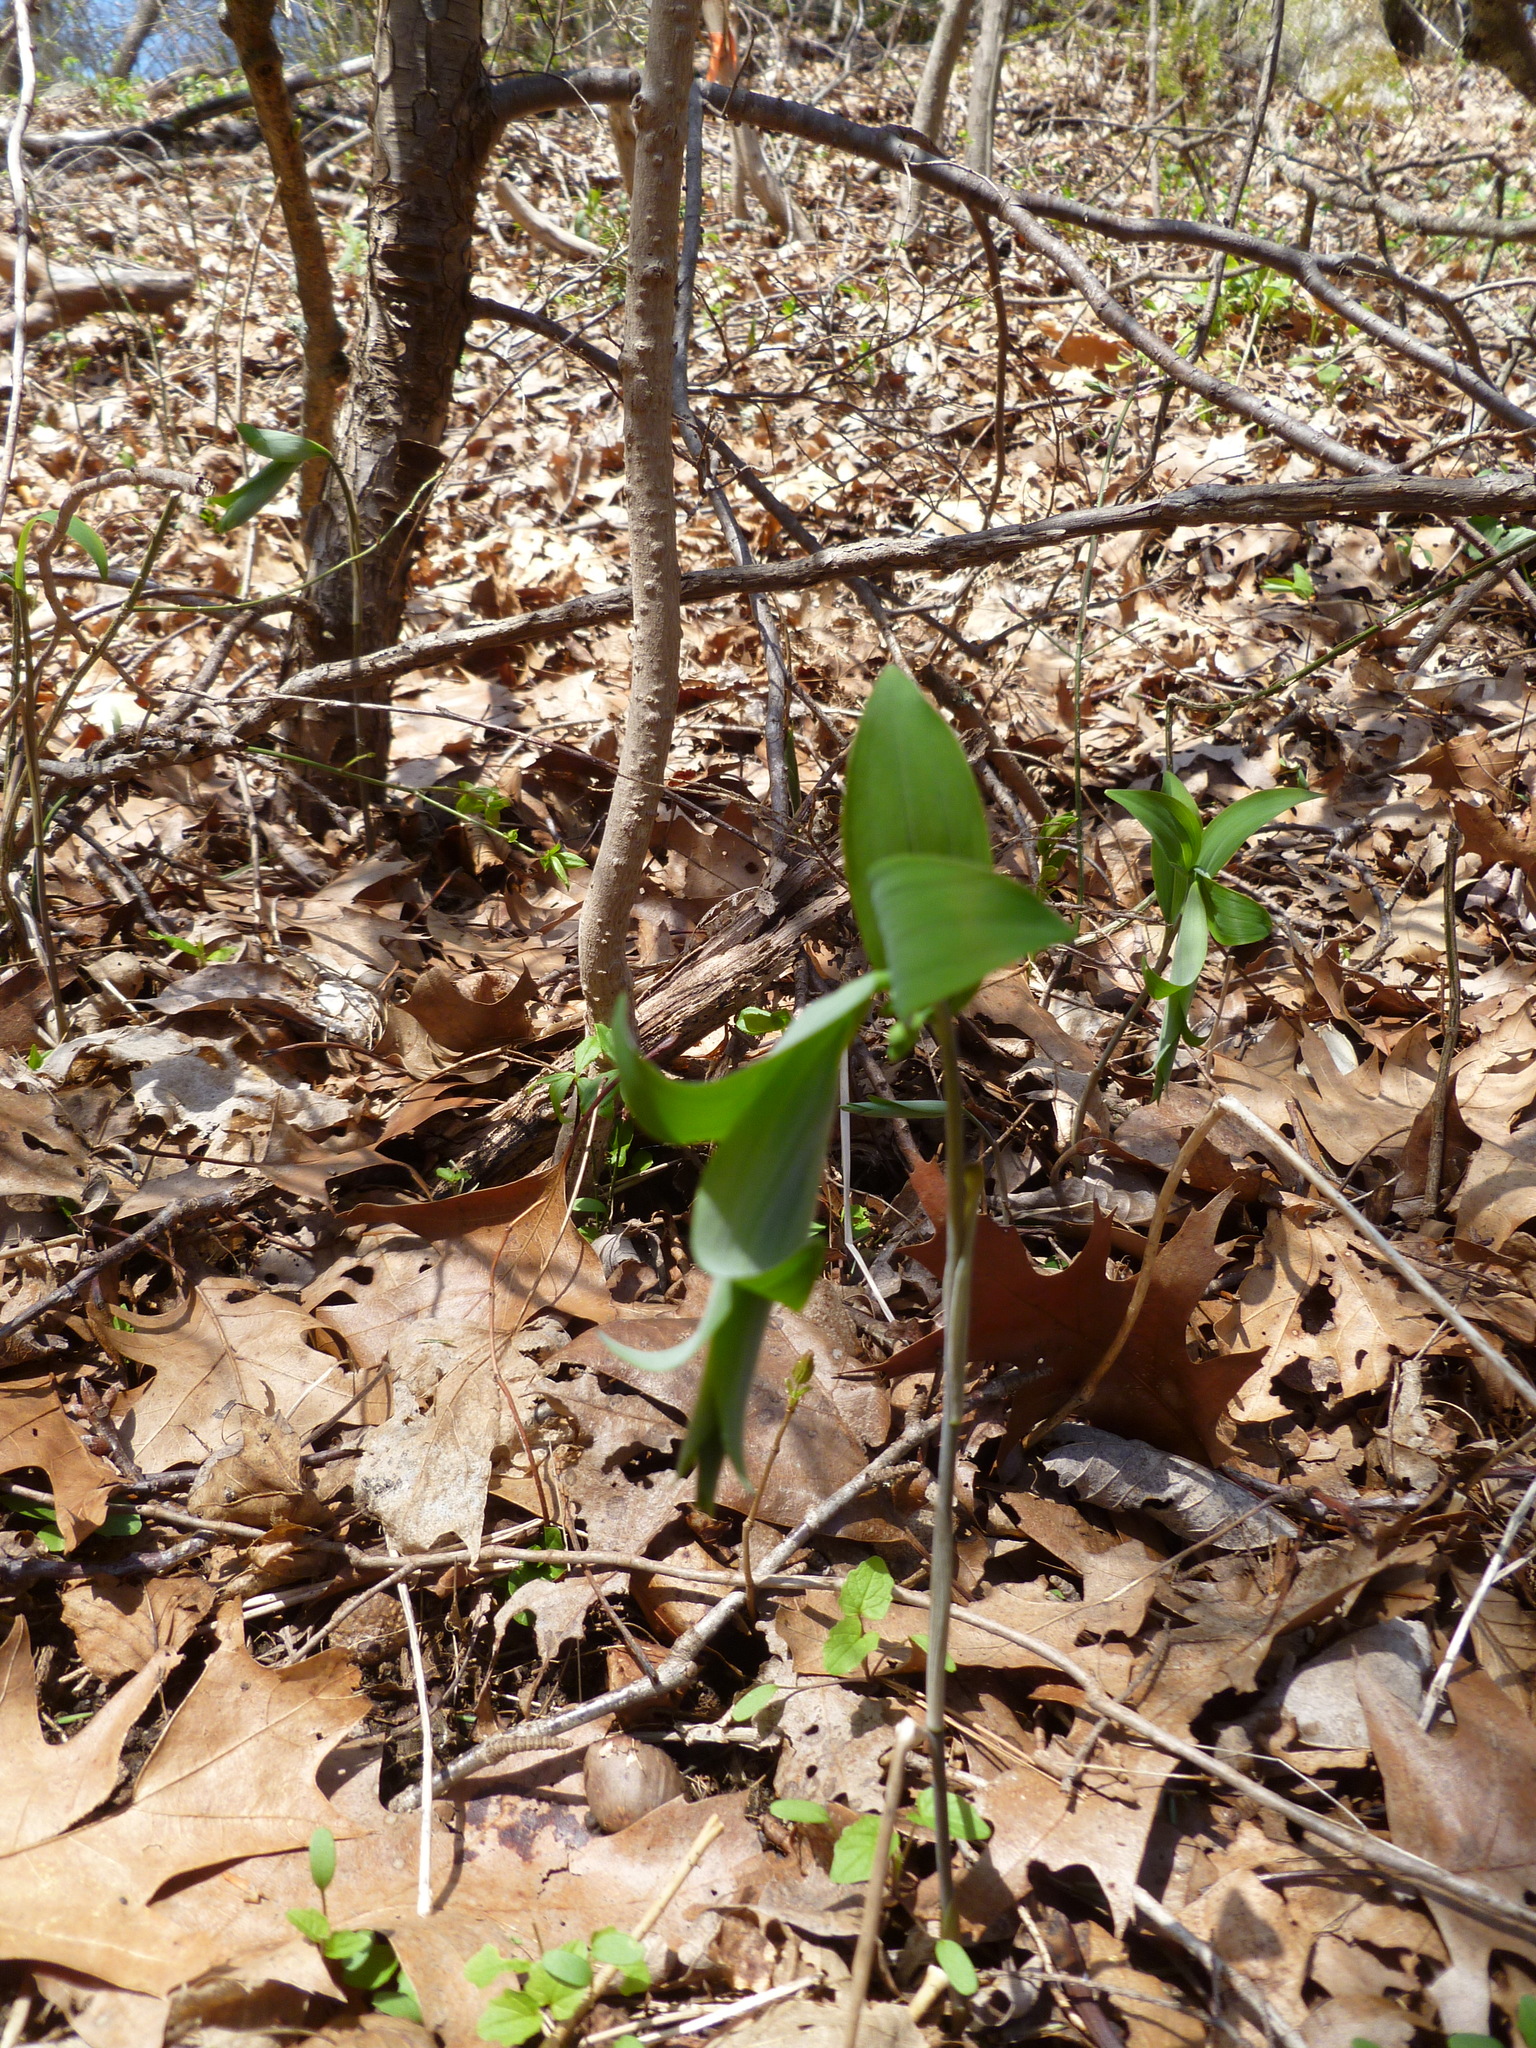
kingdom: Plantae
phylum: Tracheophyta
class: Liliopsida
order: Asparagales
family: Asparagaceae
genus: Polygonatum
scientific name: Polygonatum pubescens
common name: Downy solomon's seal
